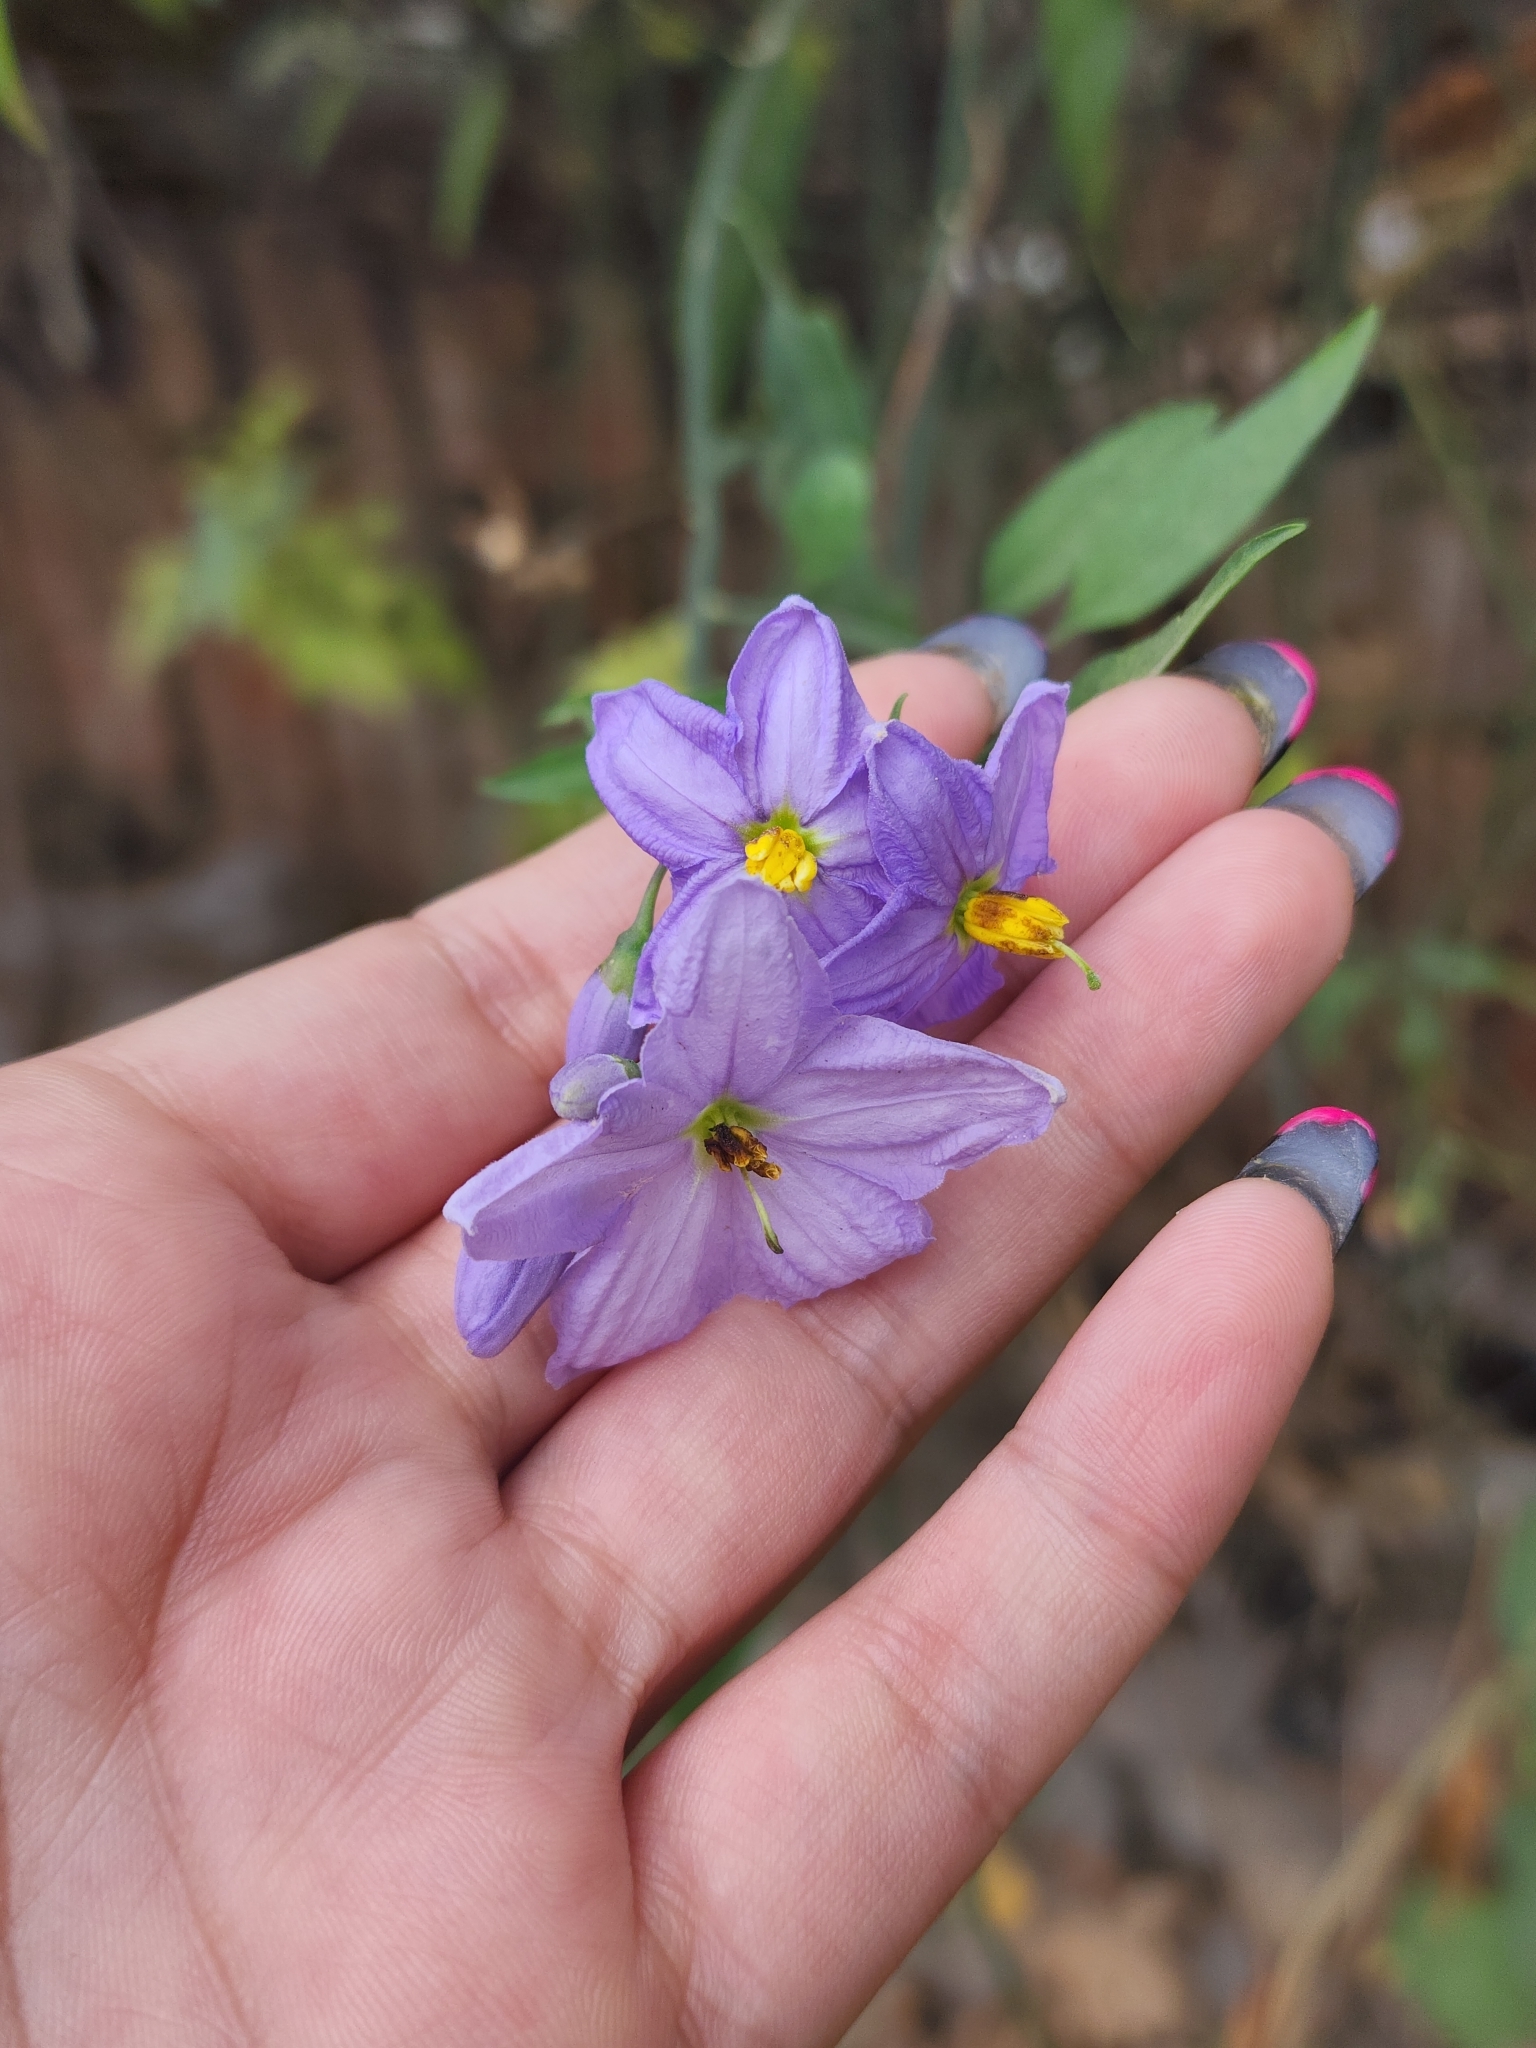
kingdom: Plantae
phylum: Tracheophyta
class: Magnoliopsida
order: Solanales
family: Solanaceae
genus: Solanum
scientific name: Solanum amygdalifolium
